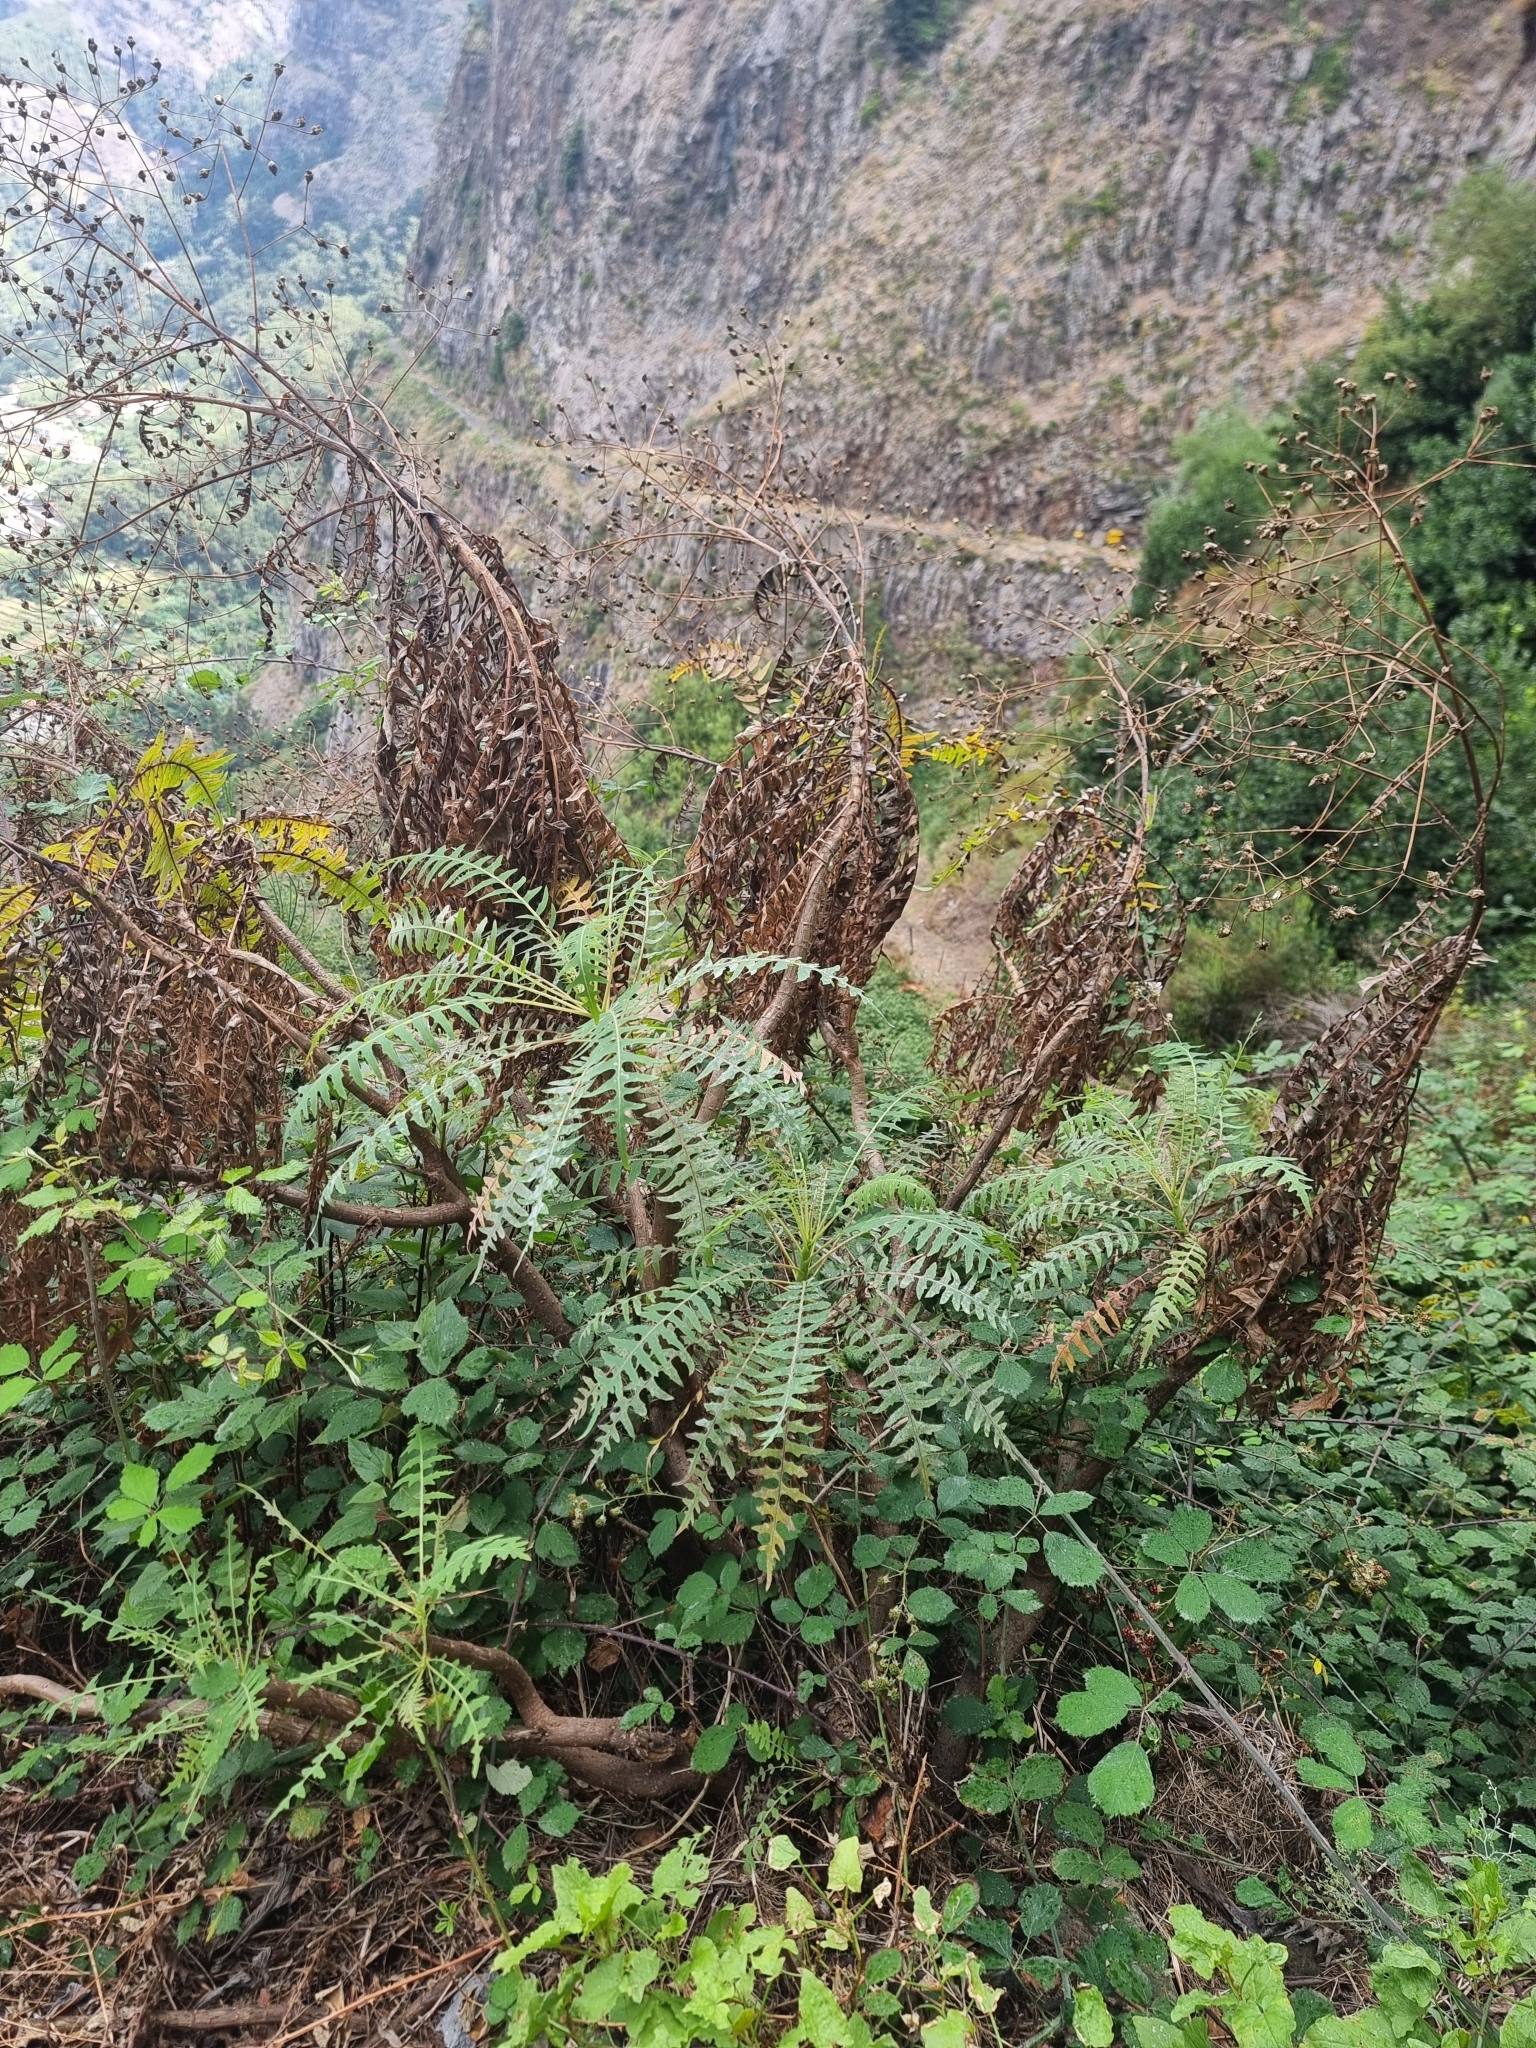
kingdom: Plantae
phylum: Tracheophyta
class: Magnoliopsida
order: Asterales
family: Asteraceae
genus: Sonchus
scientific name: Sonchus pinnatus
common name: Wing-leaved sow-thistle
